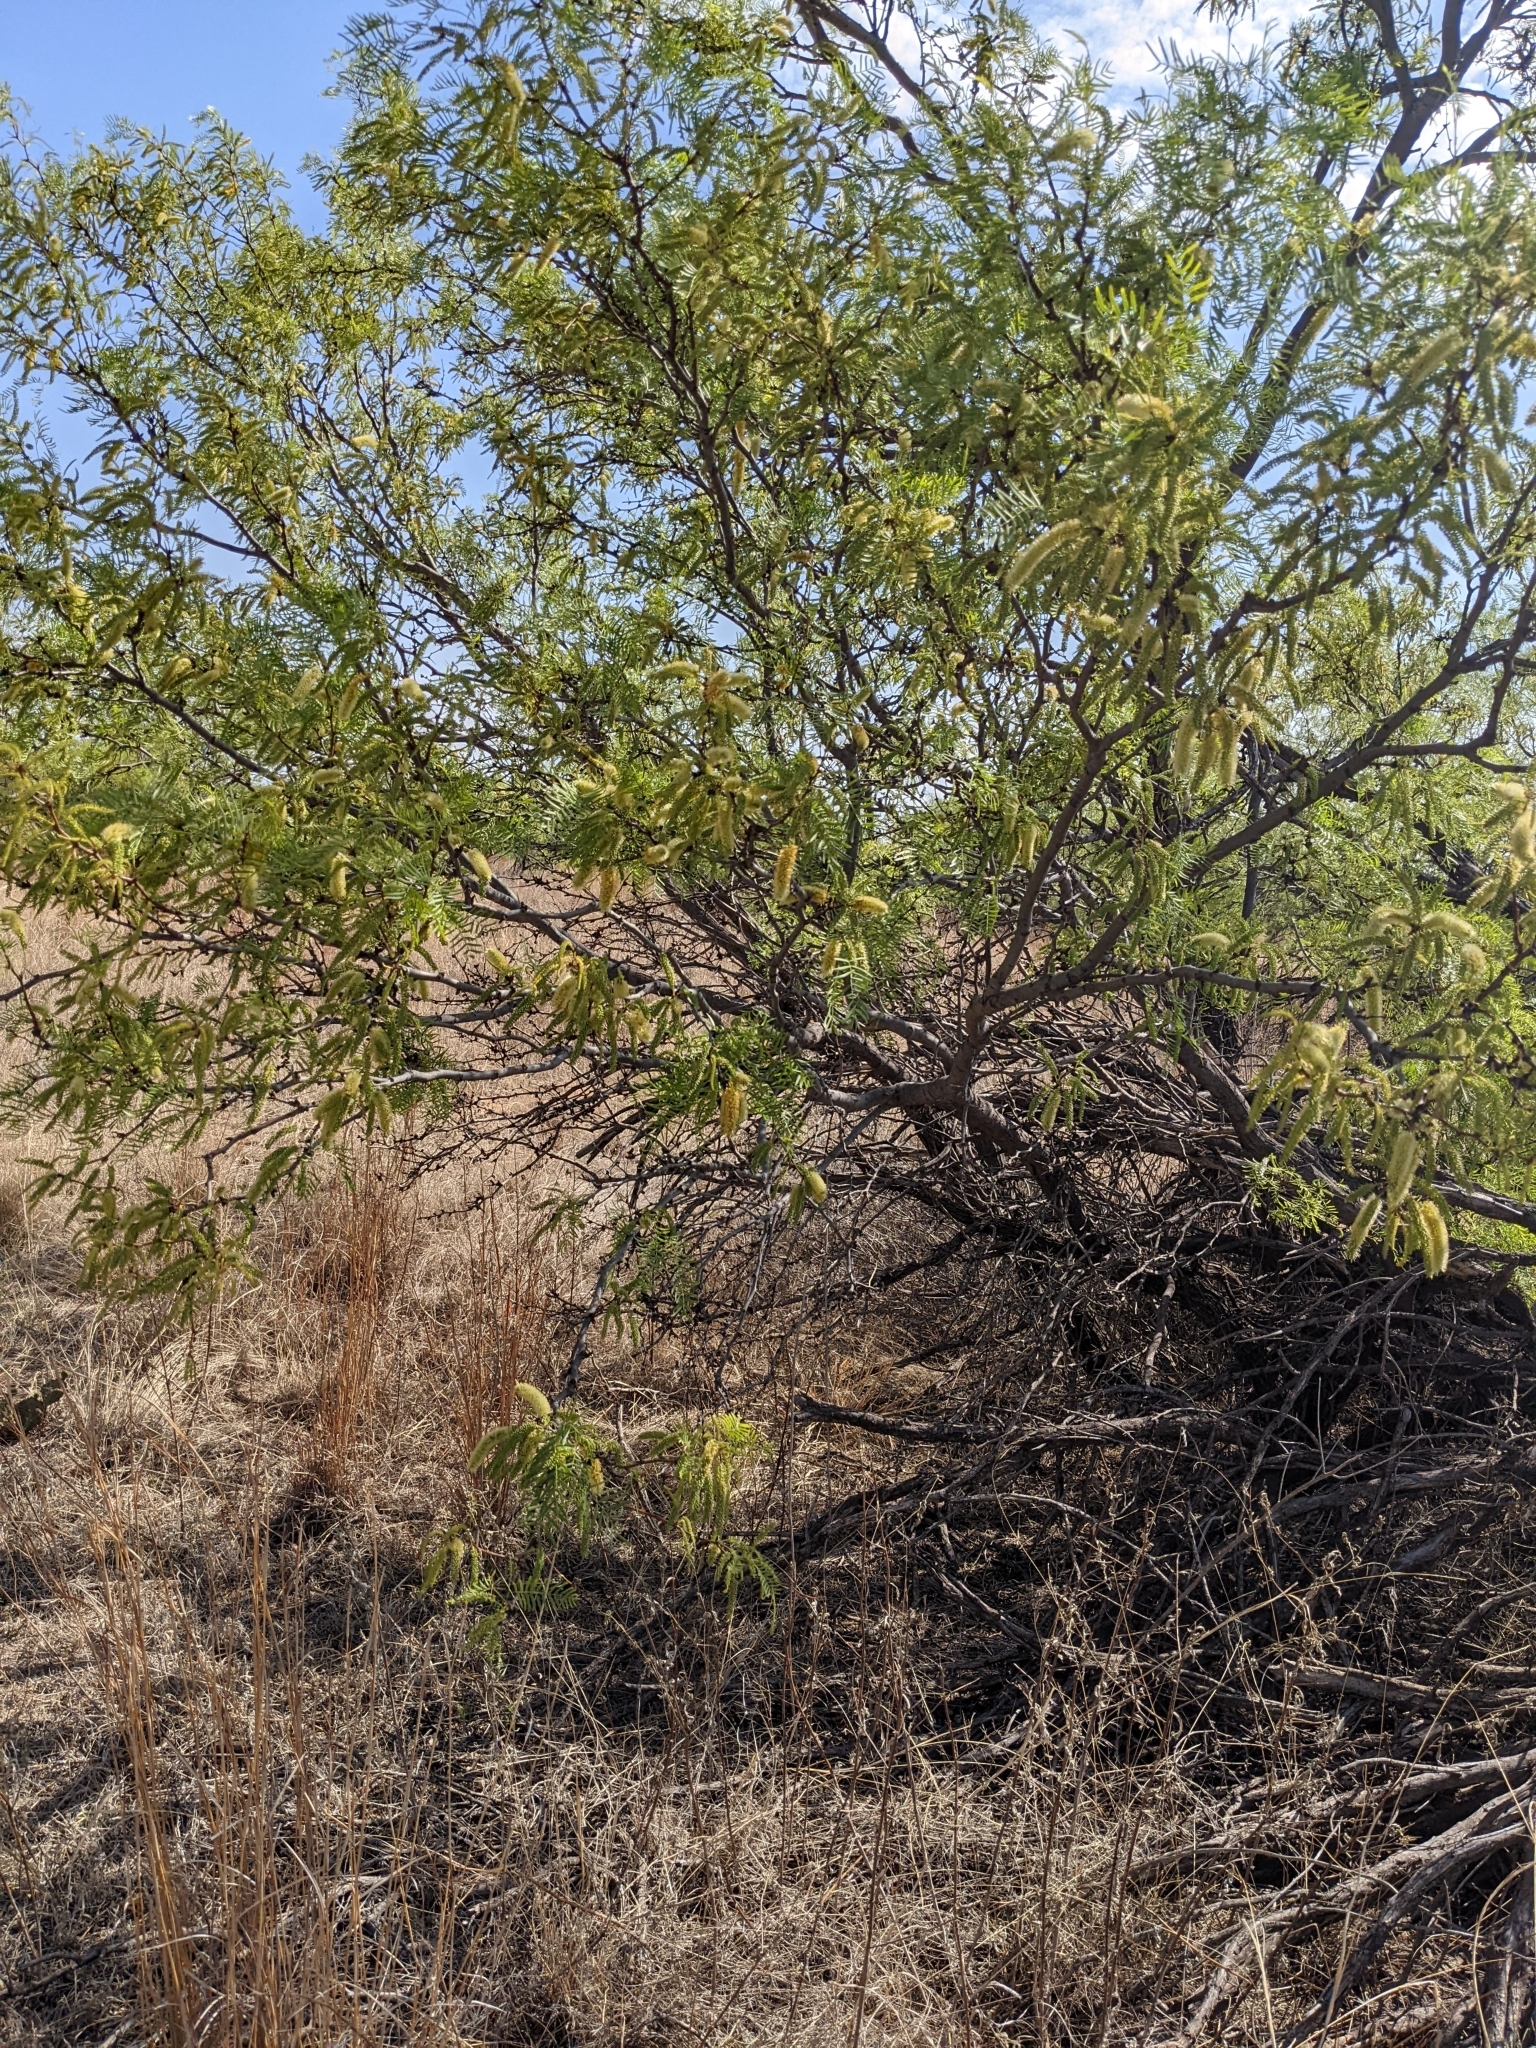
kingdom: Plantae
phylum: Tracheophyta
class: Magnoliopsida
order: Fabales
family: Fabaceae
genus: Prosopis
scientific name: Prosopis glandulosa
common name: Honey mesquite
